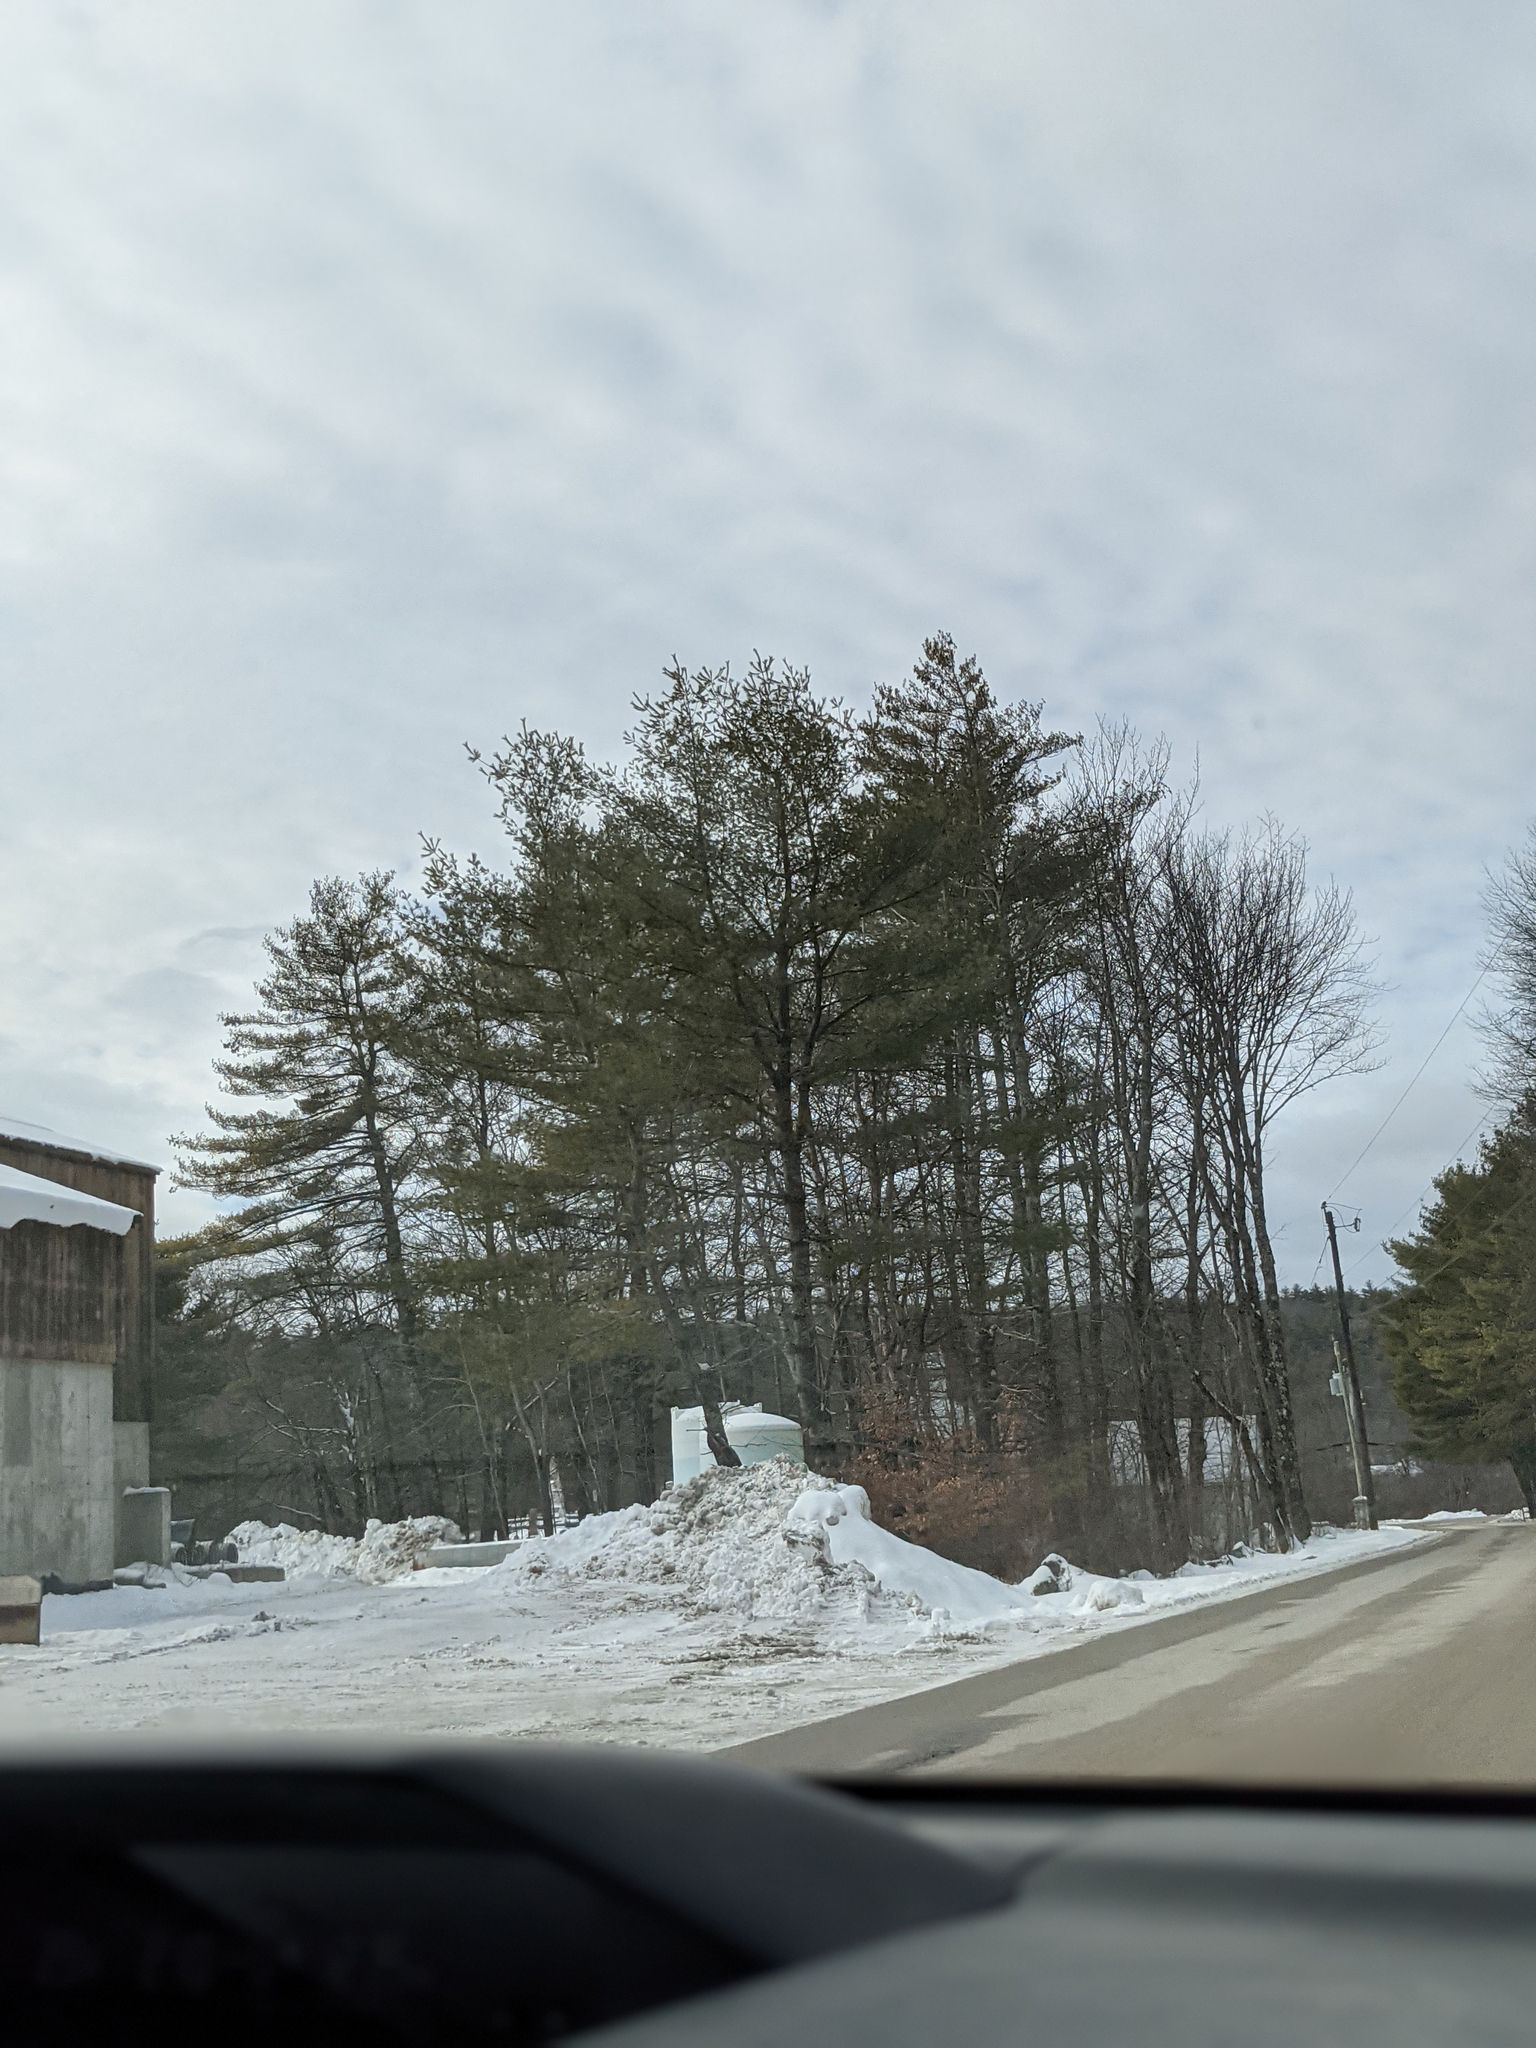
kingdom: Plantae
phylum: Tracheophyta
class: Pinopsida
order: Pinales
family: Pinaceae
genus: Pinus
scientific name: Pinus strobus
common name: Weymouth pine
